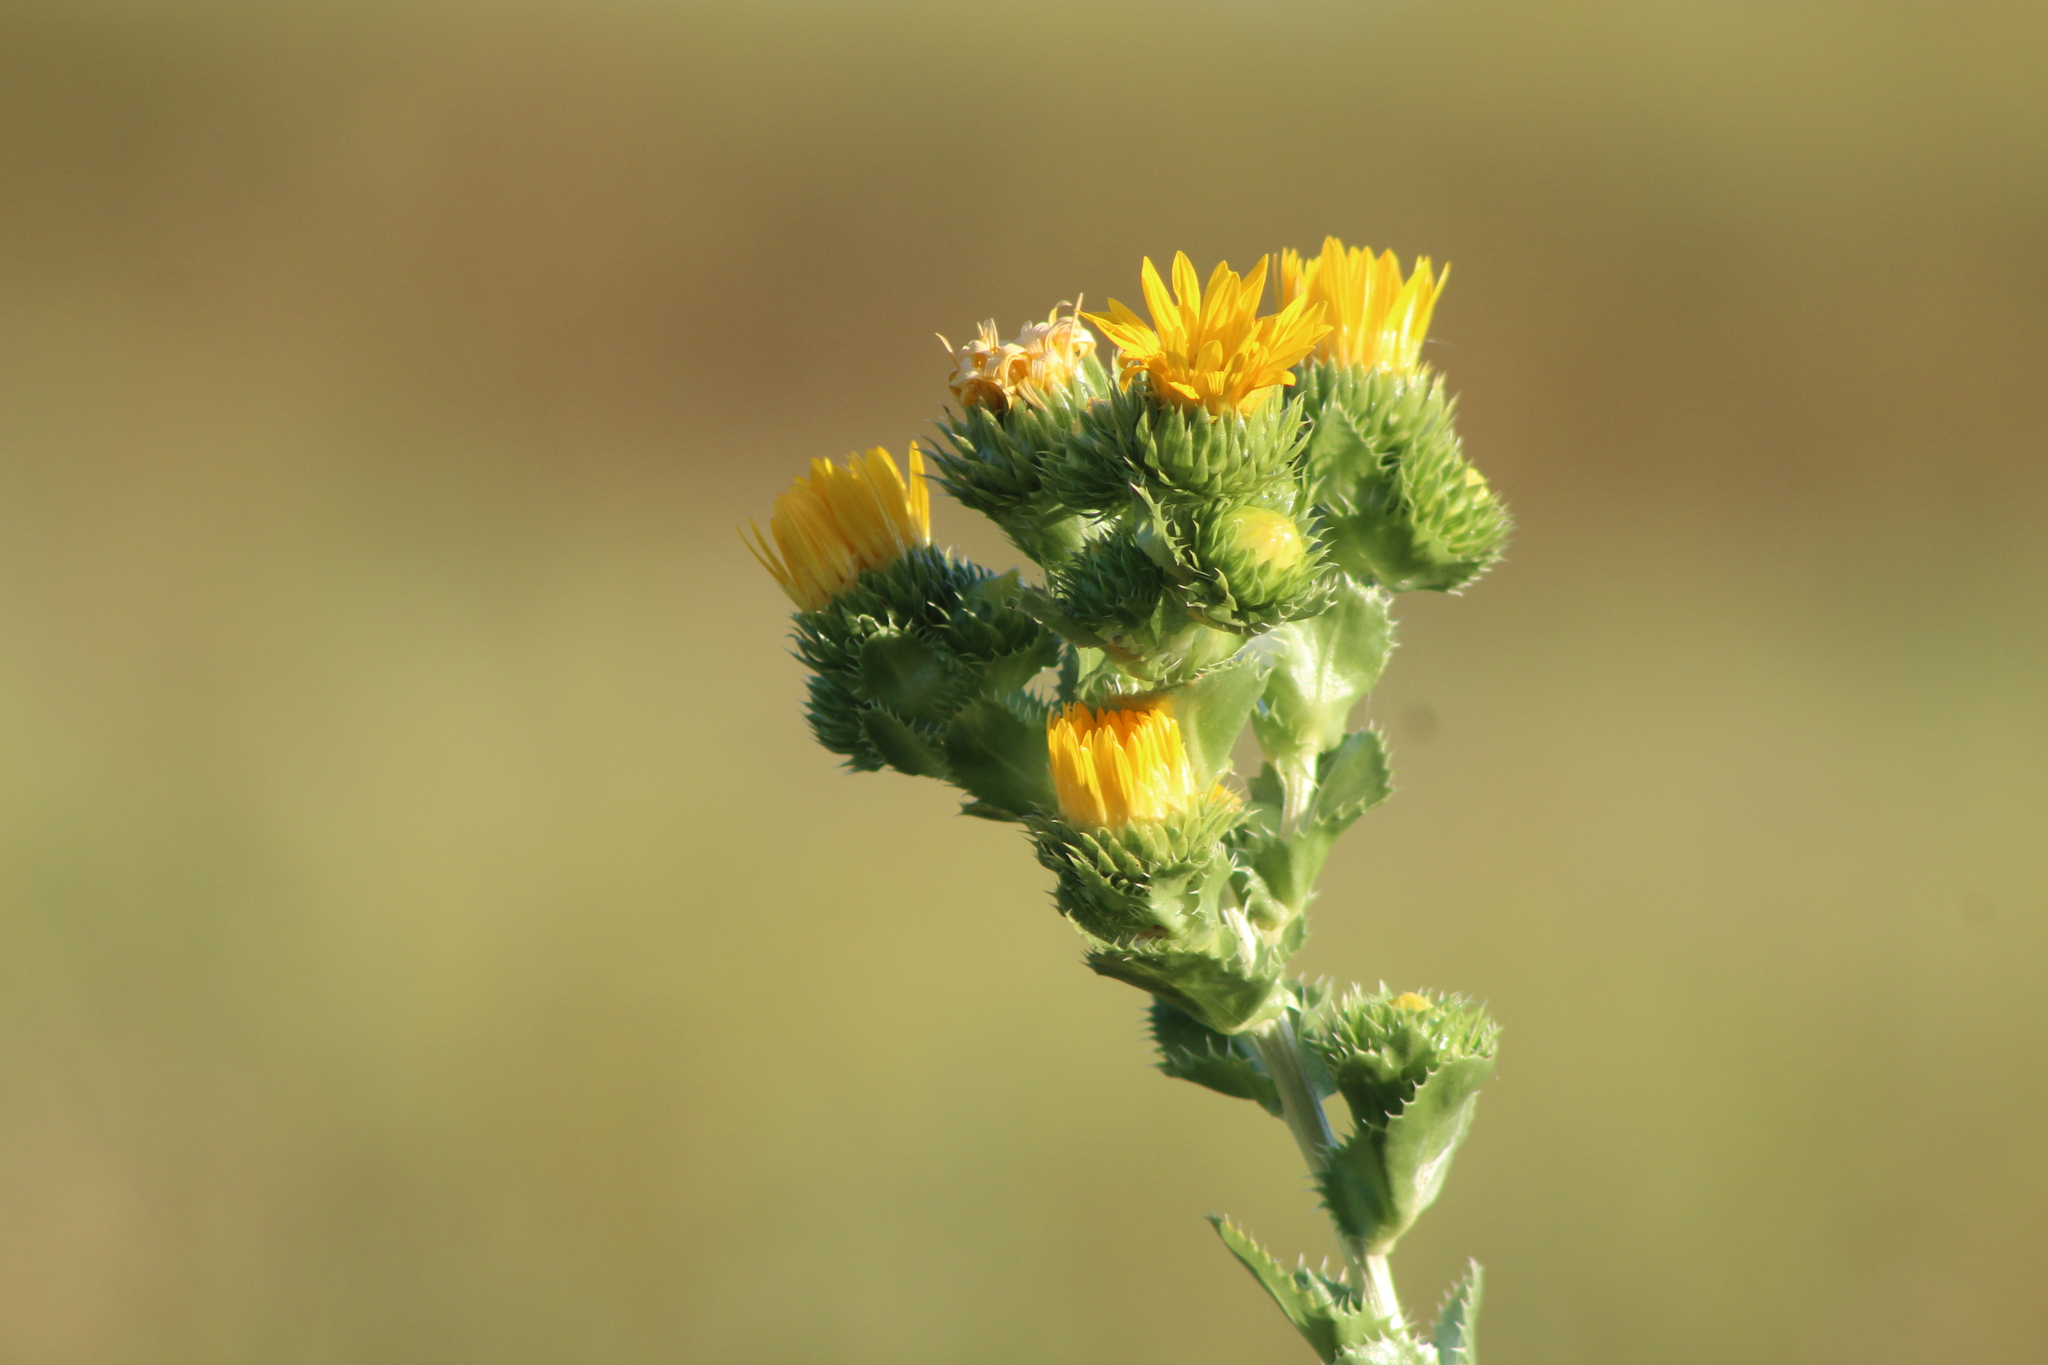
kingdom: Plantae
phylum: Tracheophyta
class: Magnoliopsida
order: Asterales
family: Asteraceae
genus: Grindelia
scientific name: Grindelia ciliata
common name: Goldenweed
